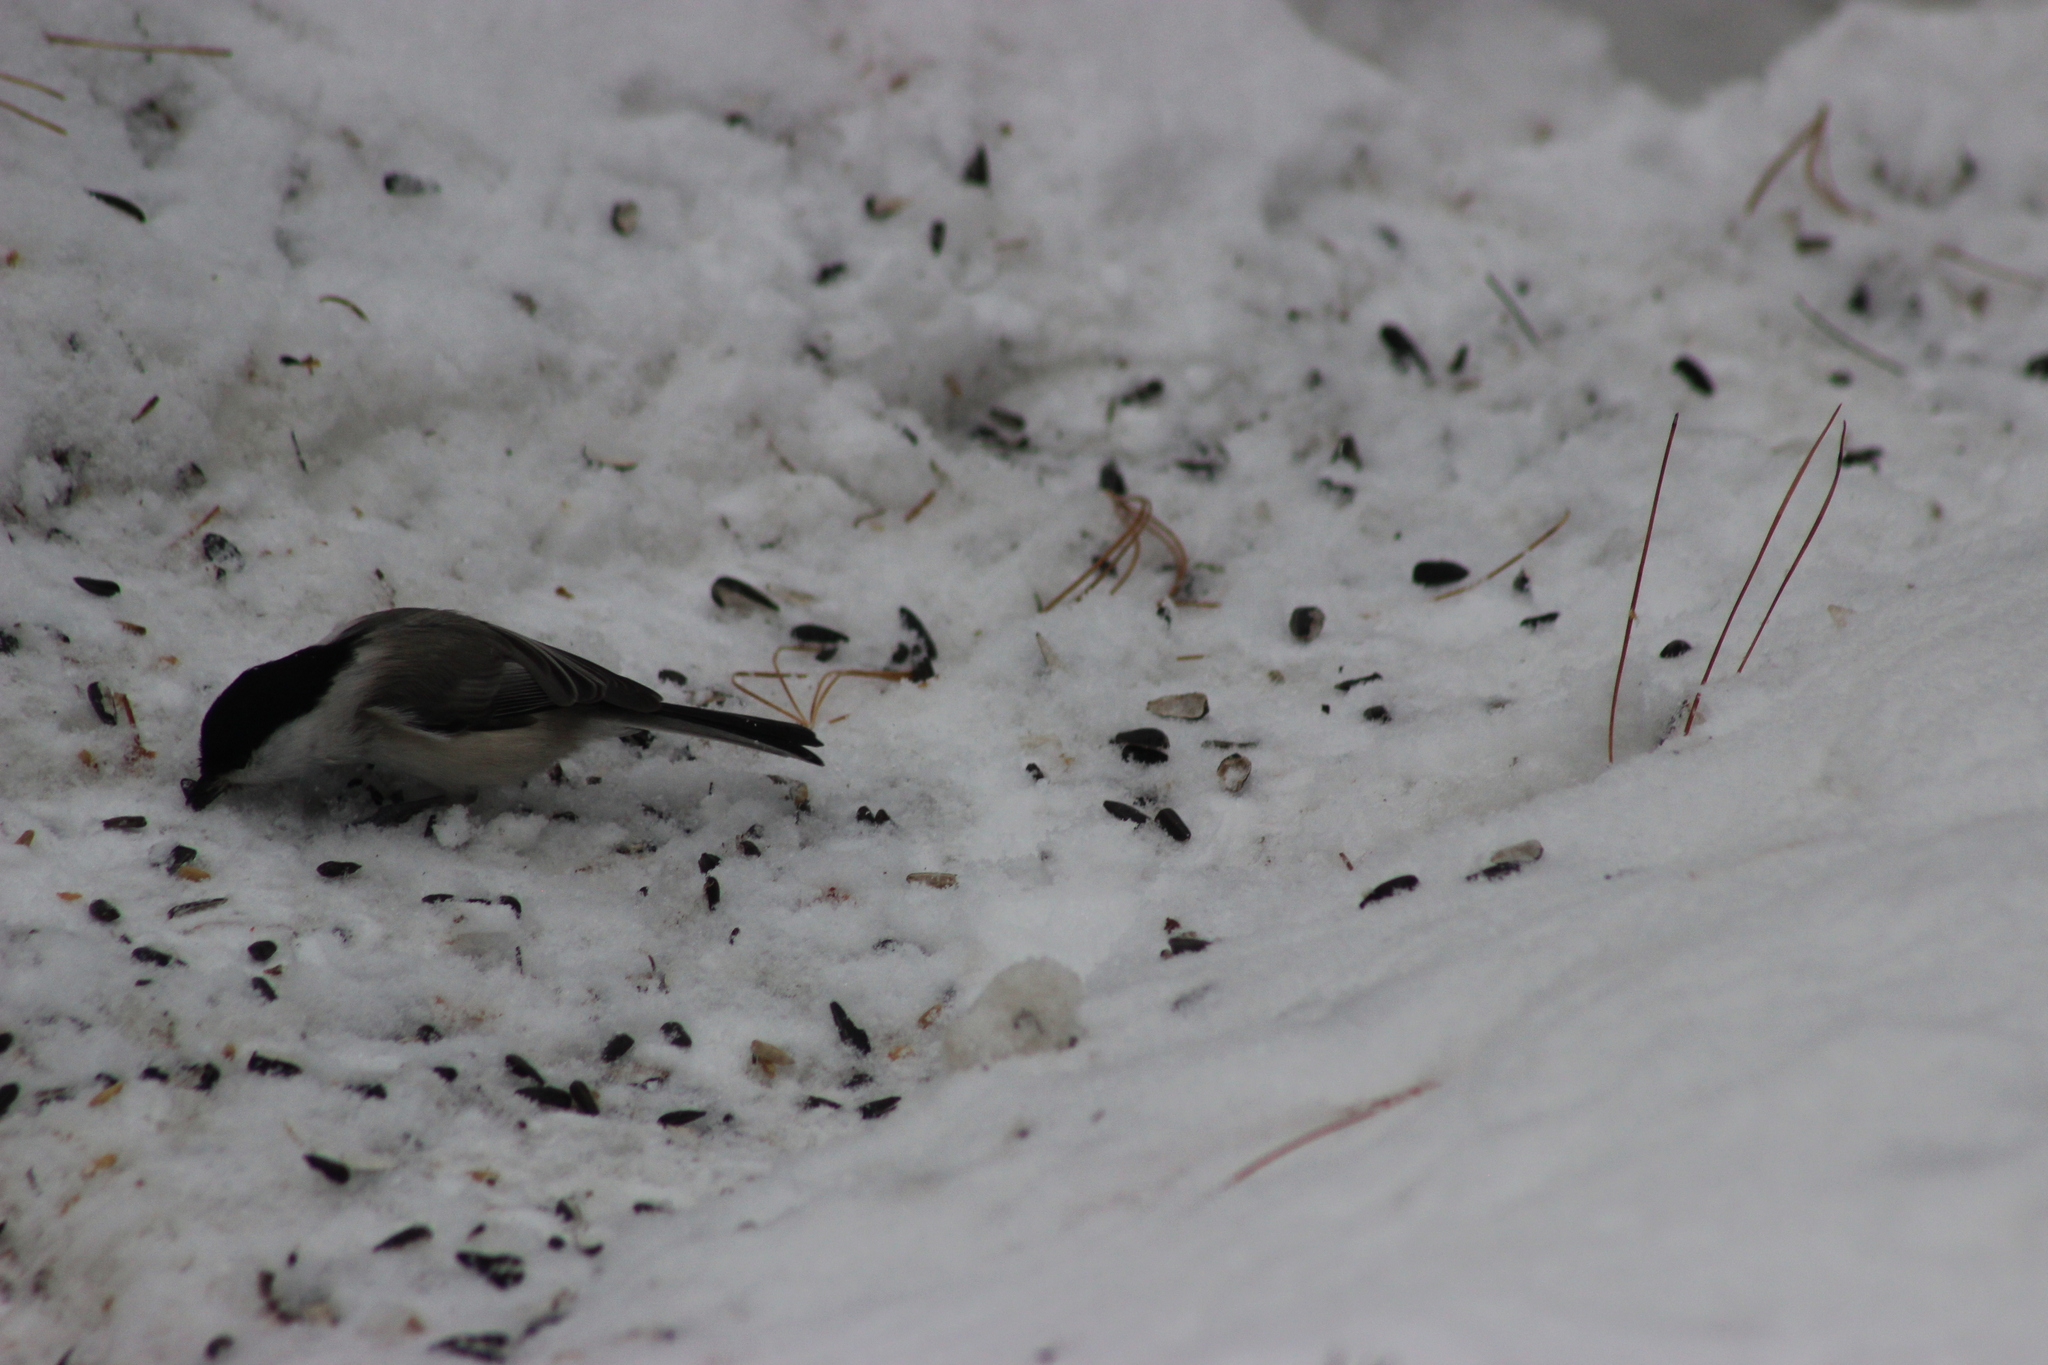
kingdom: Animalia
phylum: Chordata
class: Aves
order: Passeriformes
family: Paridae
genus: Poecile
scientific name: Poecile montanus
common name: Willow tit
